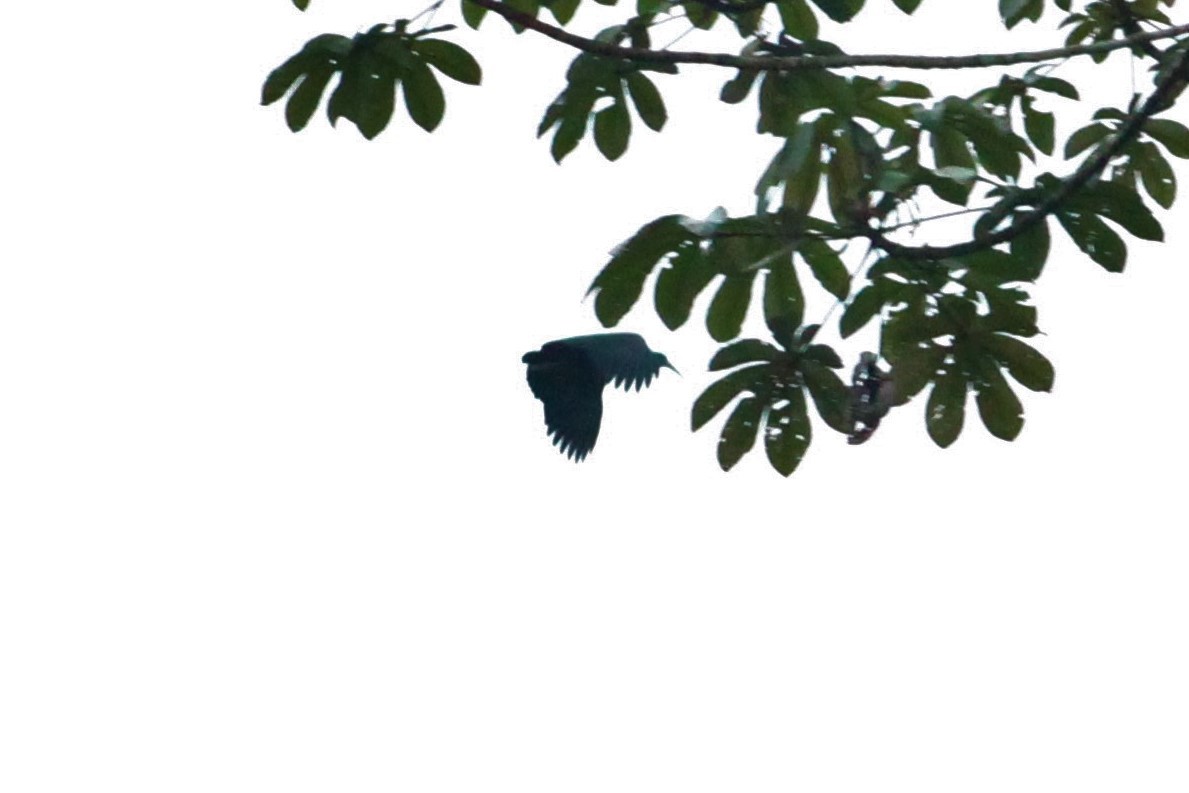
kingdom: Animalia
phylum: Chordata
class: Aves
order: Pelecaniformes
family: Threskiornithidae
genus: Mesembrinibis
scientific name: Mesembrinibis cayennensis
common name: Green ibis
